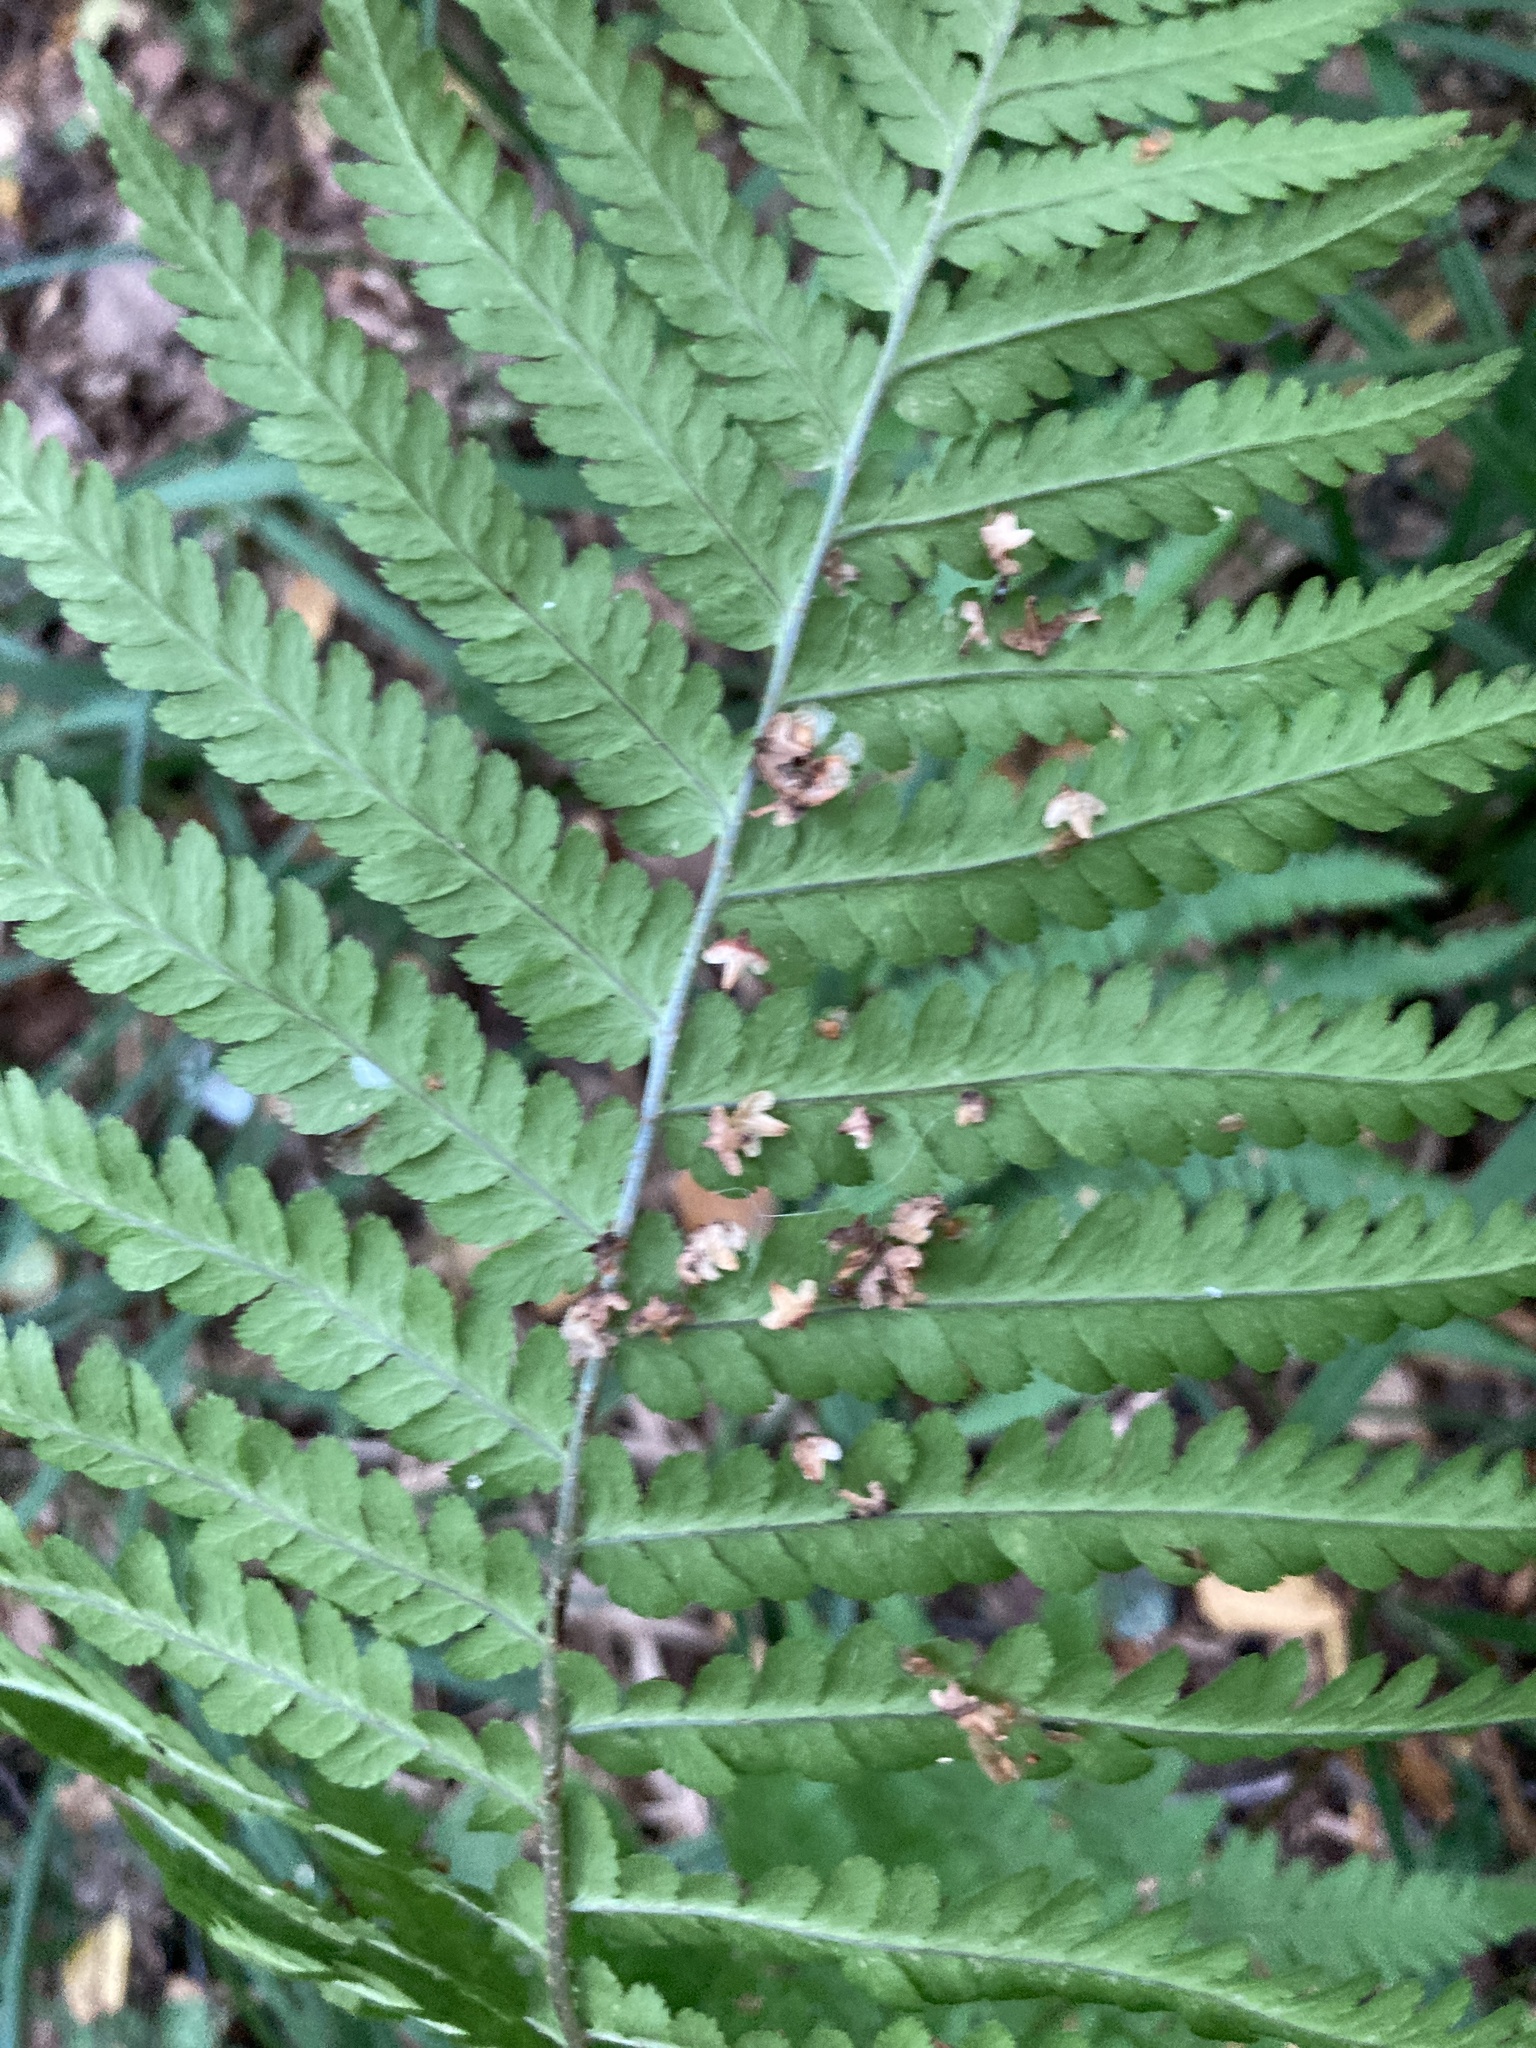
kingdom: Plantae
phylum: Tracheophyta
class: Polypodiopsida
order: Polypodiales
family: Dryopteridaceae
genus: Dryopteris
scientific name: Dryopteris filix-mas
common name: Male fern
